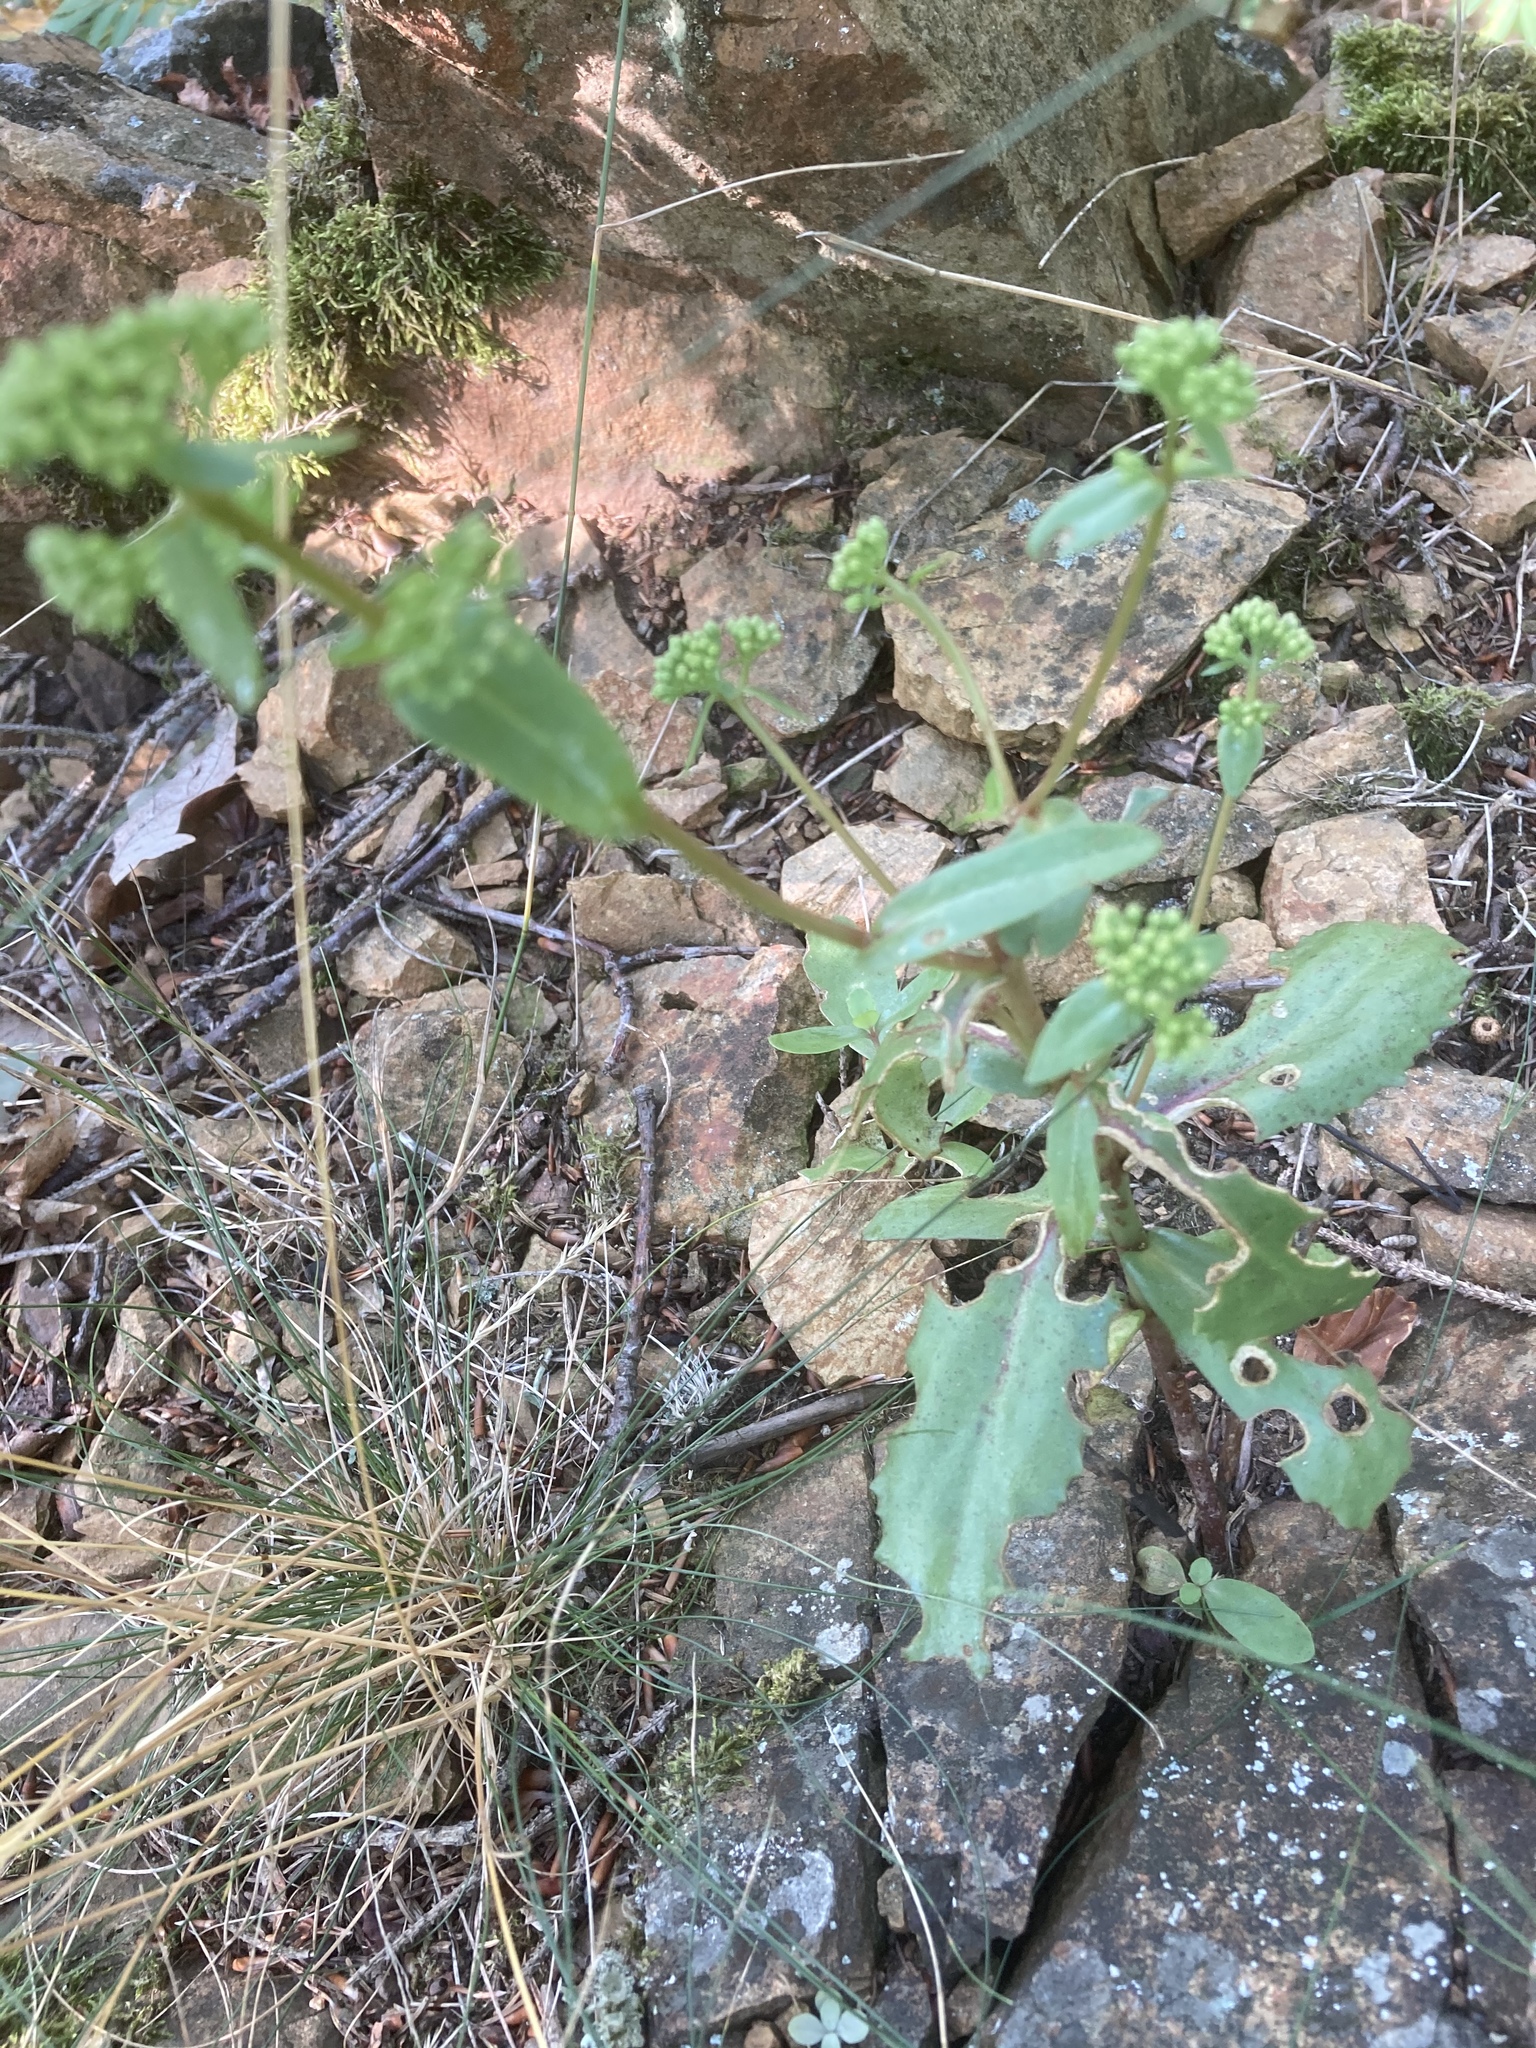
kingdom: Plantae
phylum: Tracheophyta
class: Magnoliopsida
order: Saxifragales
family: Crassulaceae
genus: Hylotelephium
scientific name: Hylotelephium maximum
